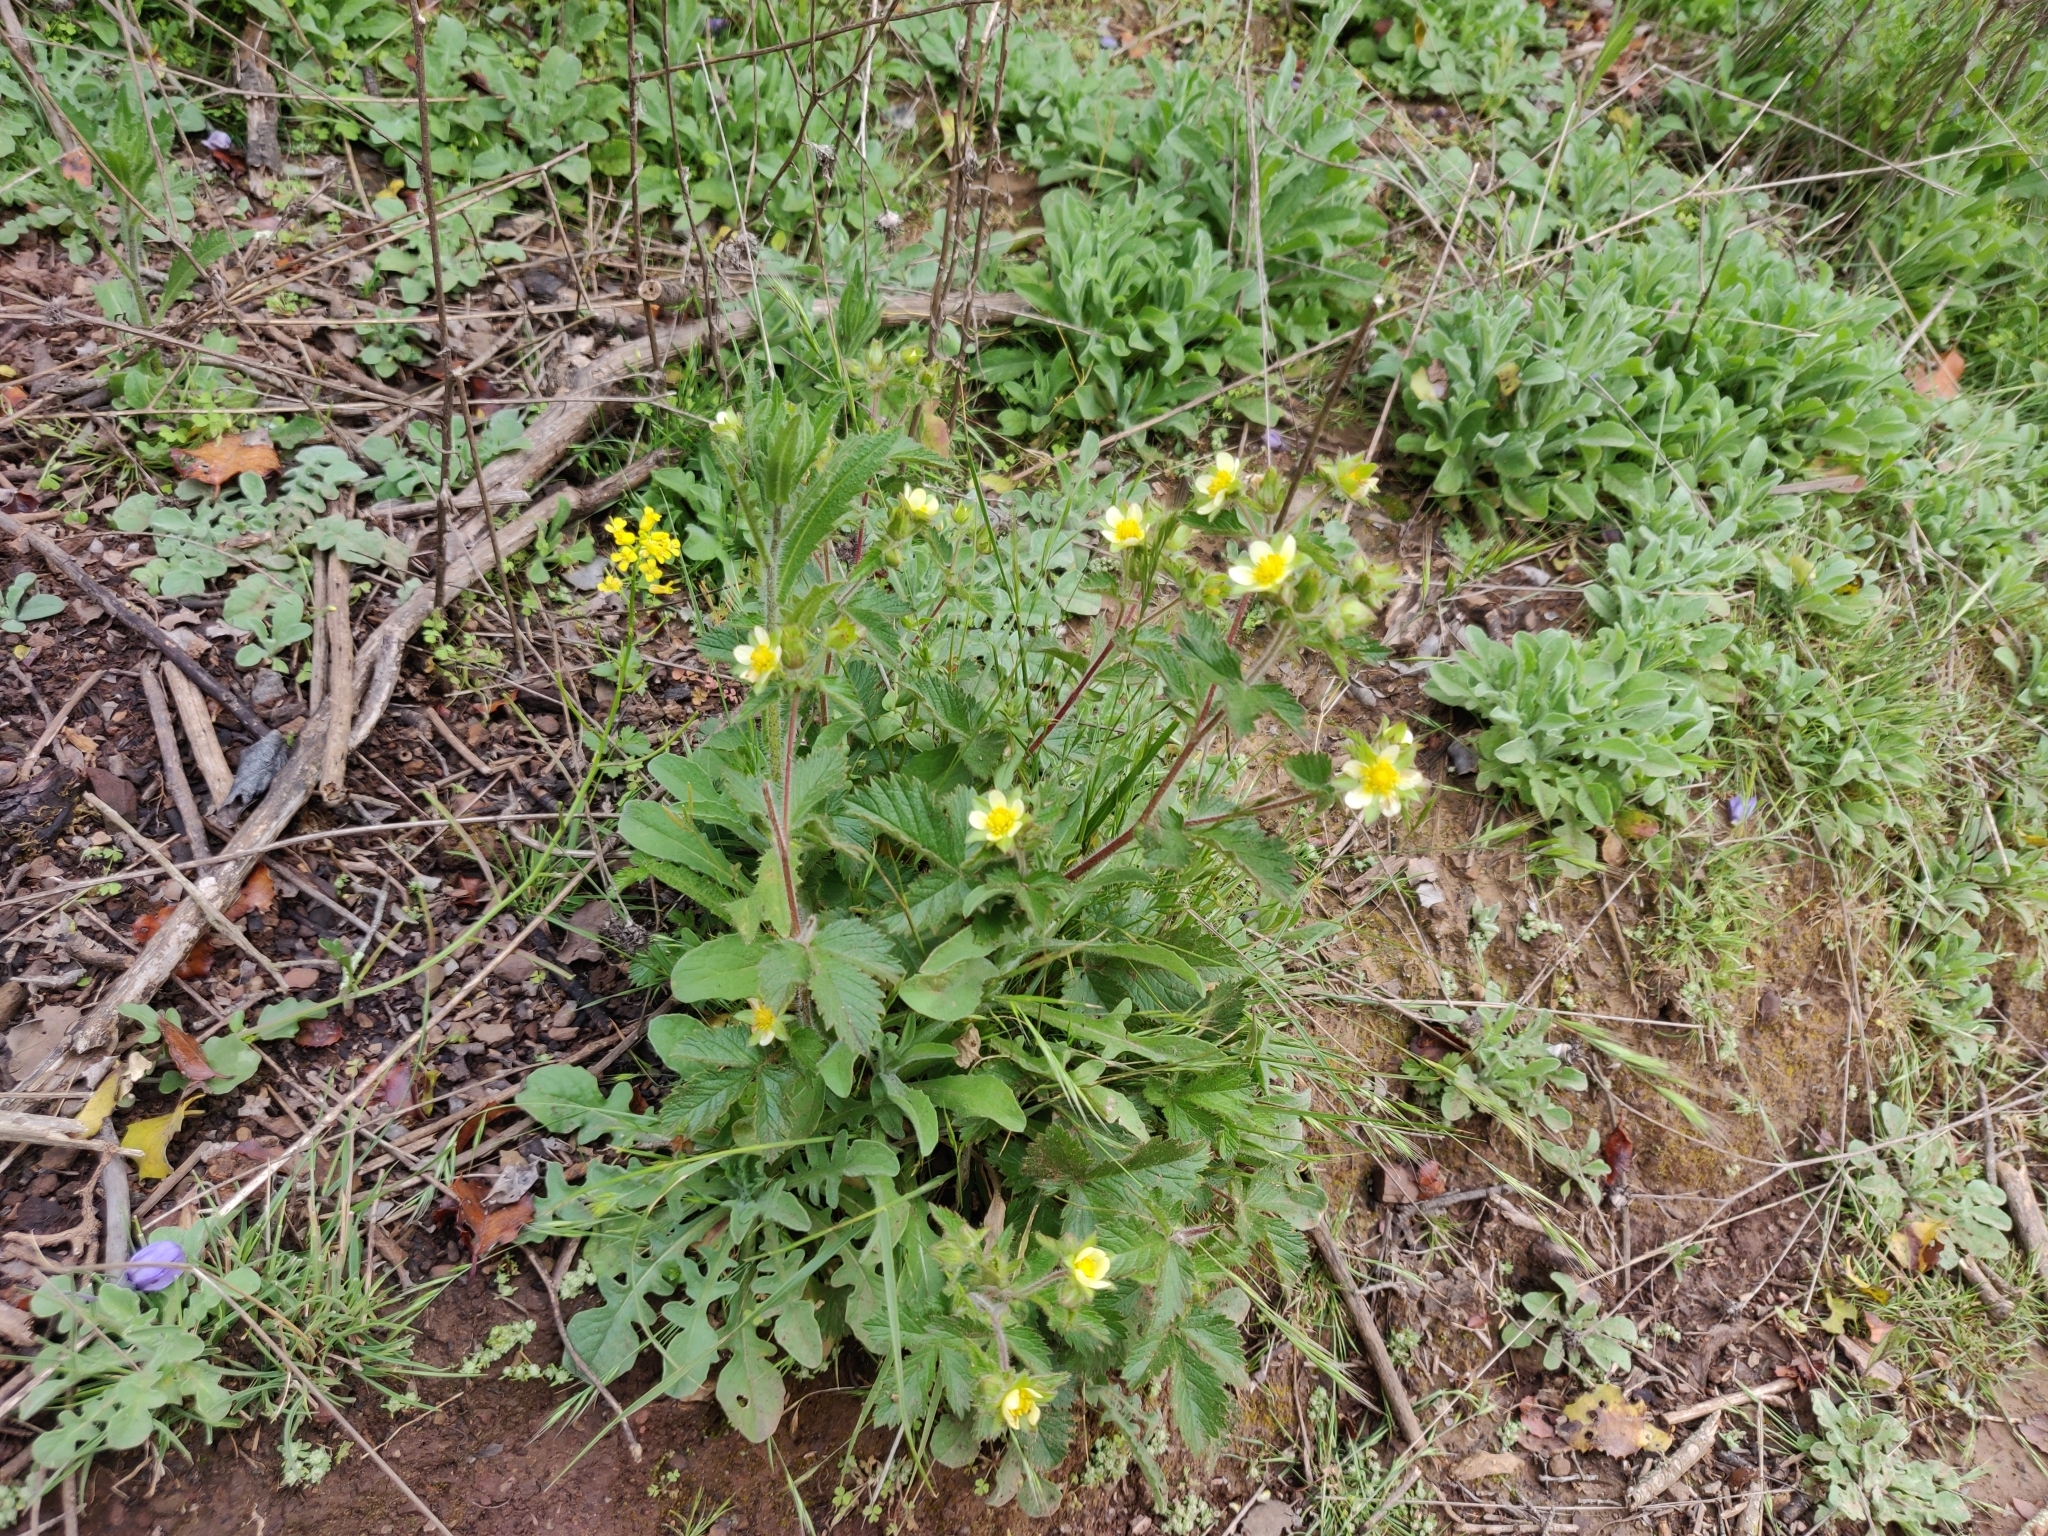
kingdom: Plantae
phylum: Tracheophyta
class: Magnoliopsida
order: Rosales
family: Rosaceae
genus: Drymocallis
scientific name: Drymocallis glandulosa
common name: Sticky cinquefoil
